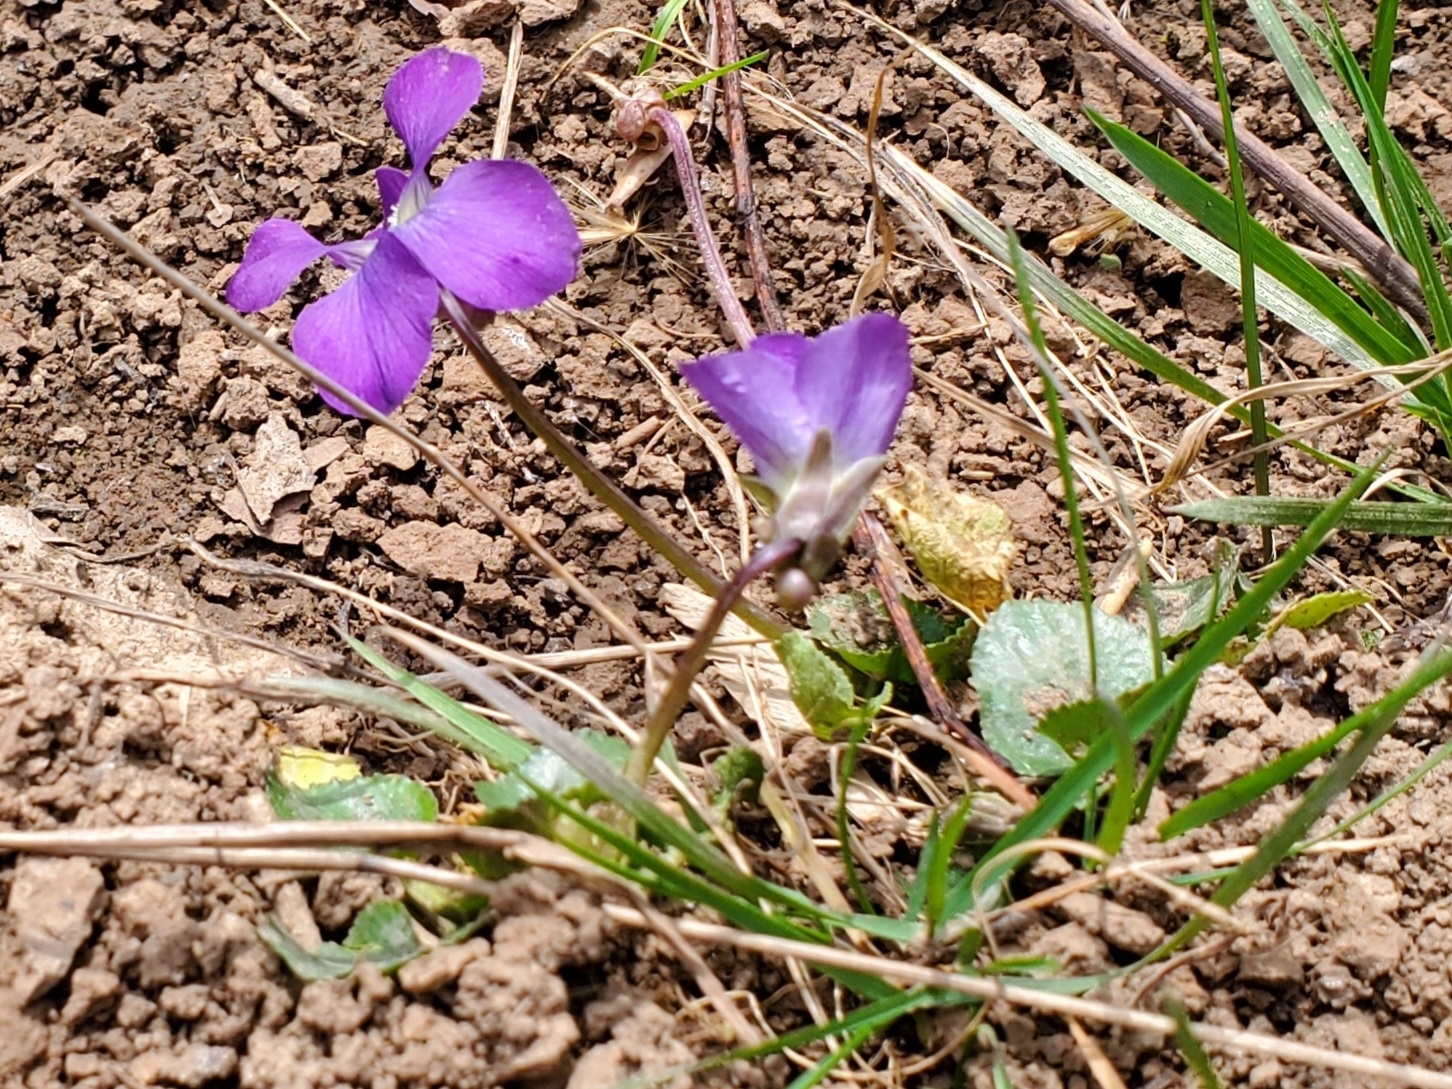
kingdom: Plantae
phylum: Tracheophyta
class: Magnoliopsida
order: Malpighiales
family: Violaceae
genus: Viola
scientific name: Viola sororia
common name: Dooryard violet
